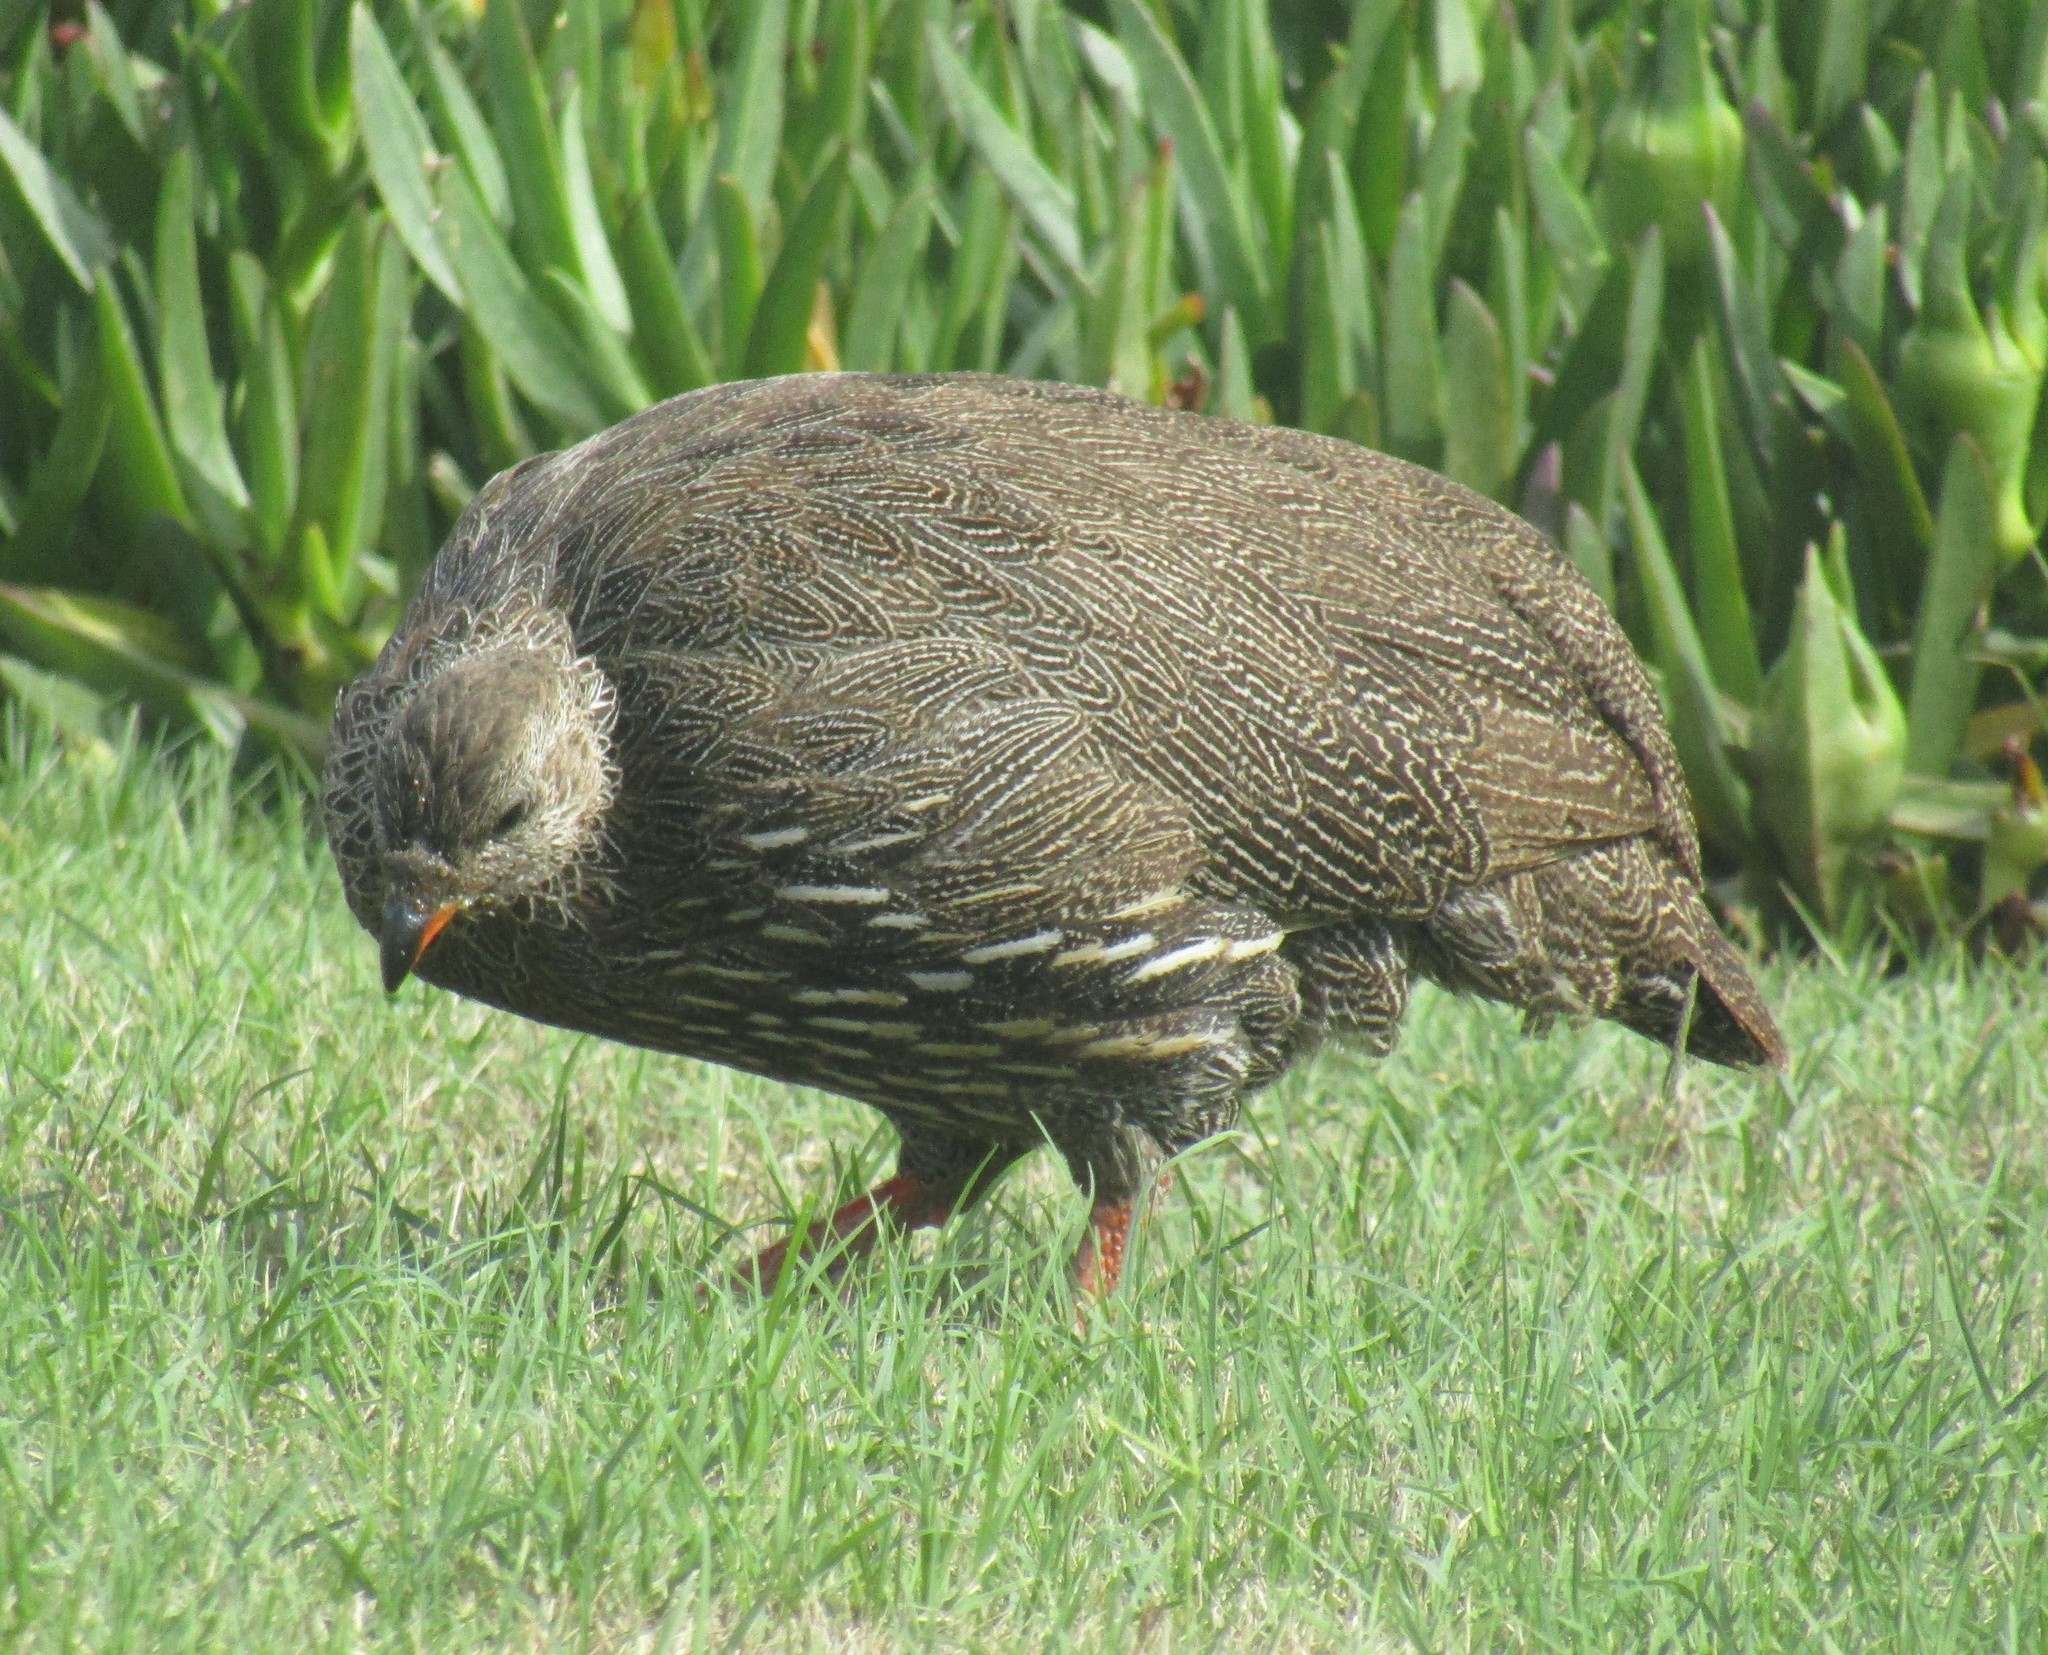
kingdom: Animalia
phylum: Chordata
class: Aves
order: Galliformes
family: Phasianidae
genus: Pternistis
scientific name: Pternistis capensis
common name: Cape spurfowl
